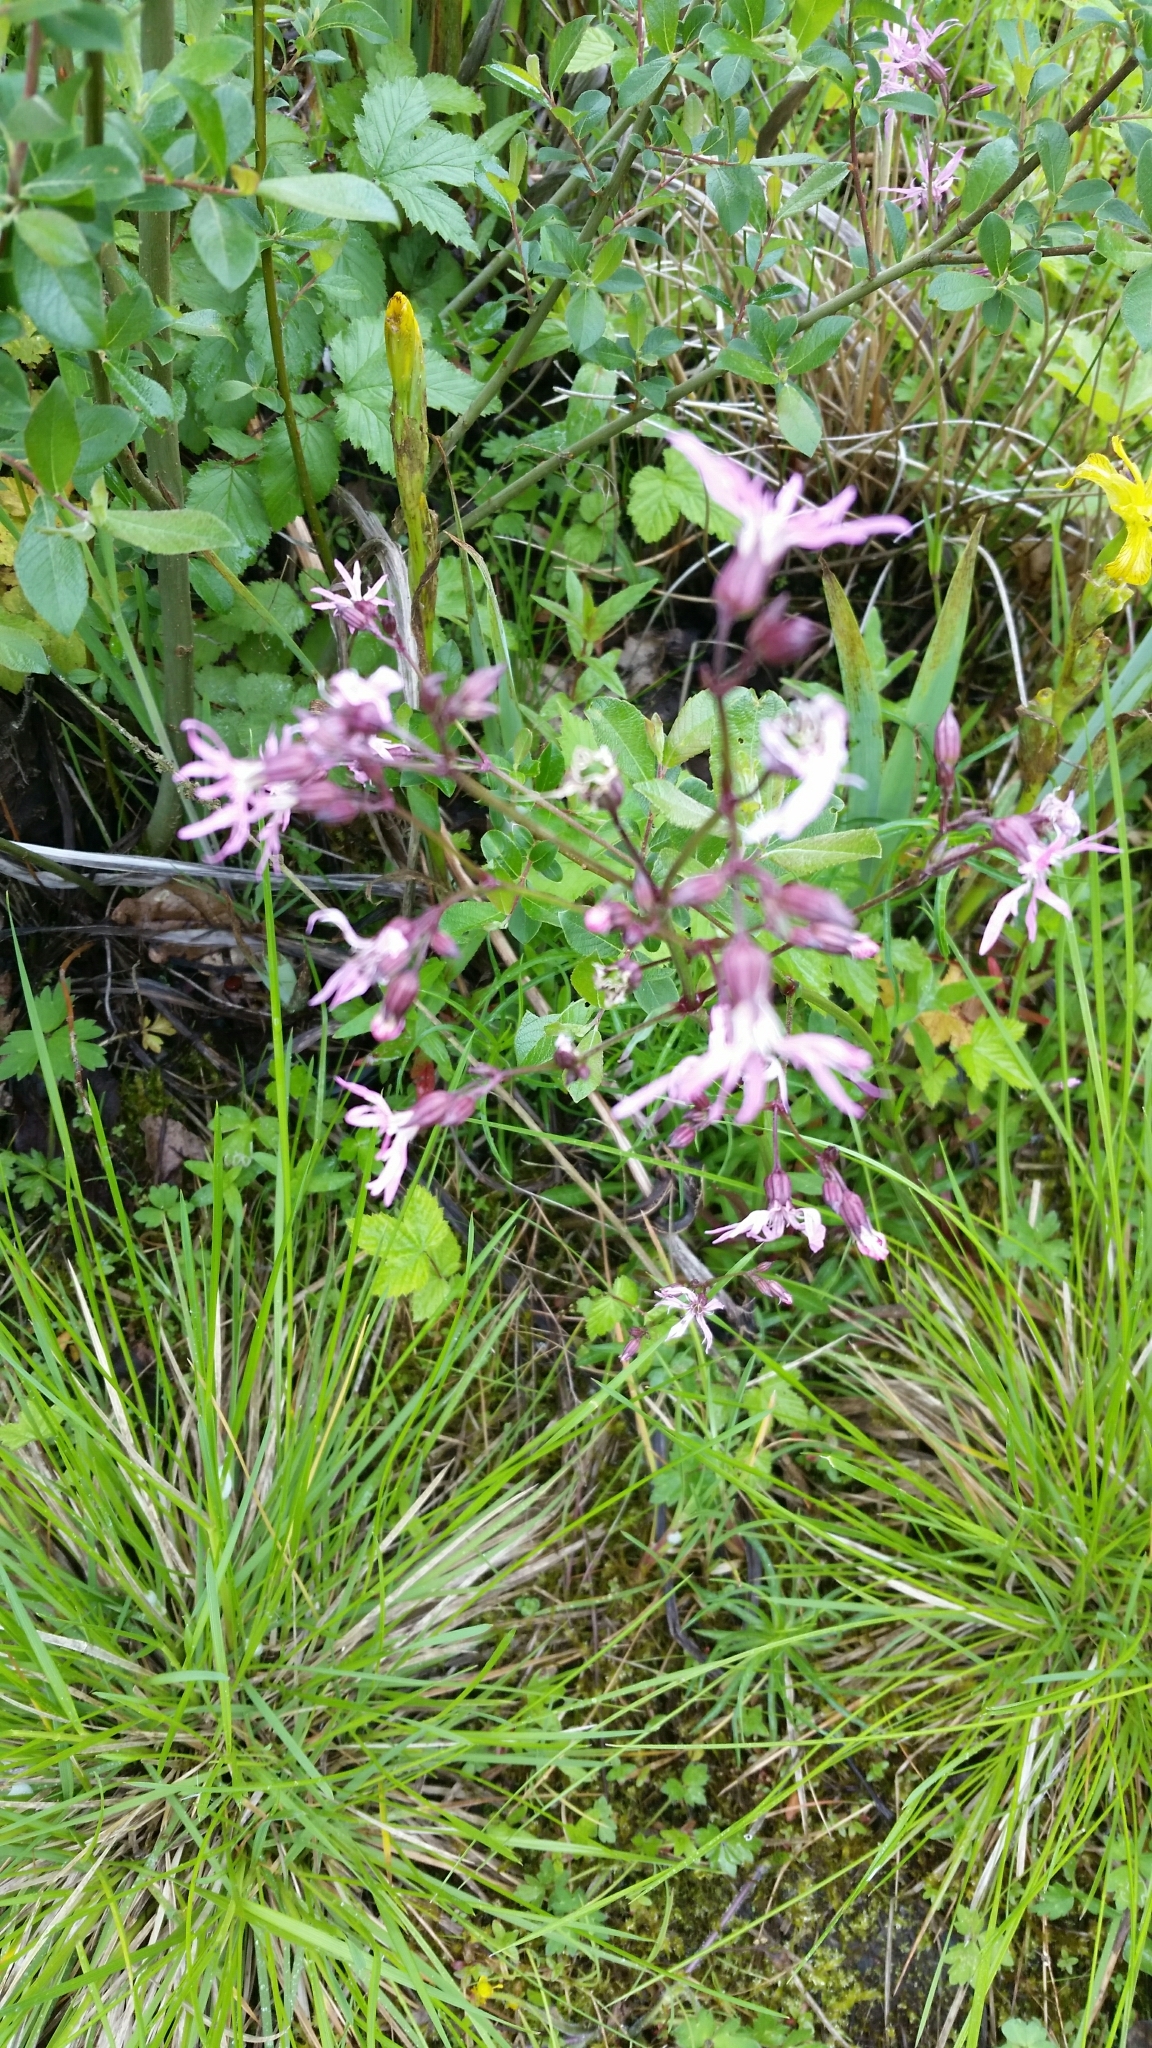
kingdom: Plantae
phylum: Tracheophyta
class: Magnoliopsida
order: Caryophyllales
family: Caryophyllaceae
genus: Silene
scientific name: Silene flos-cuculi
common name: Ragged-robin
